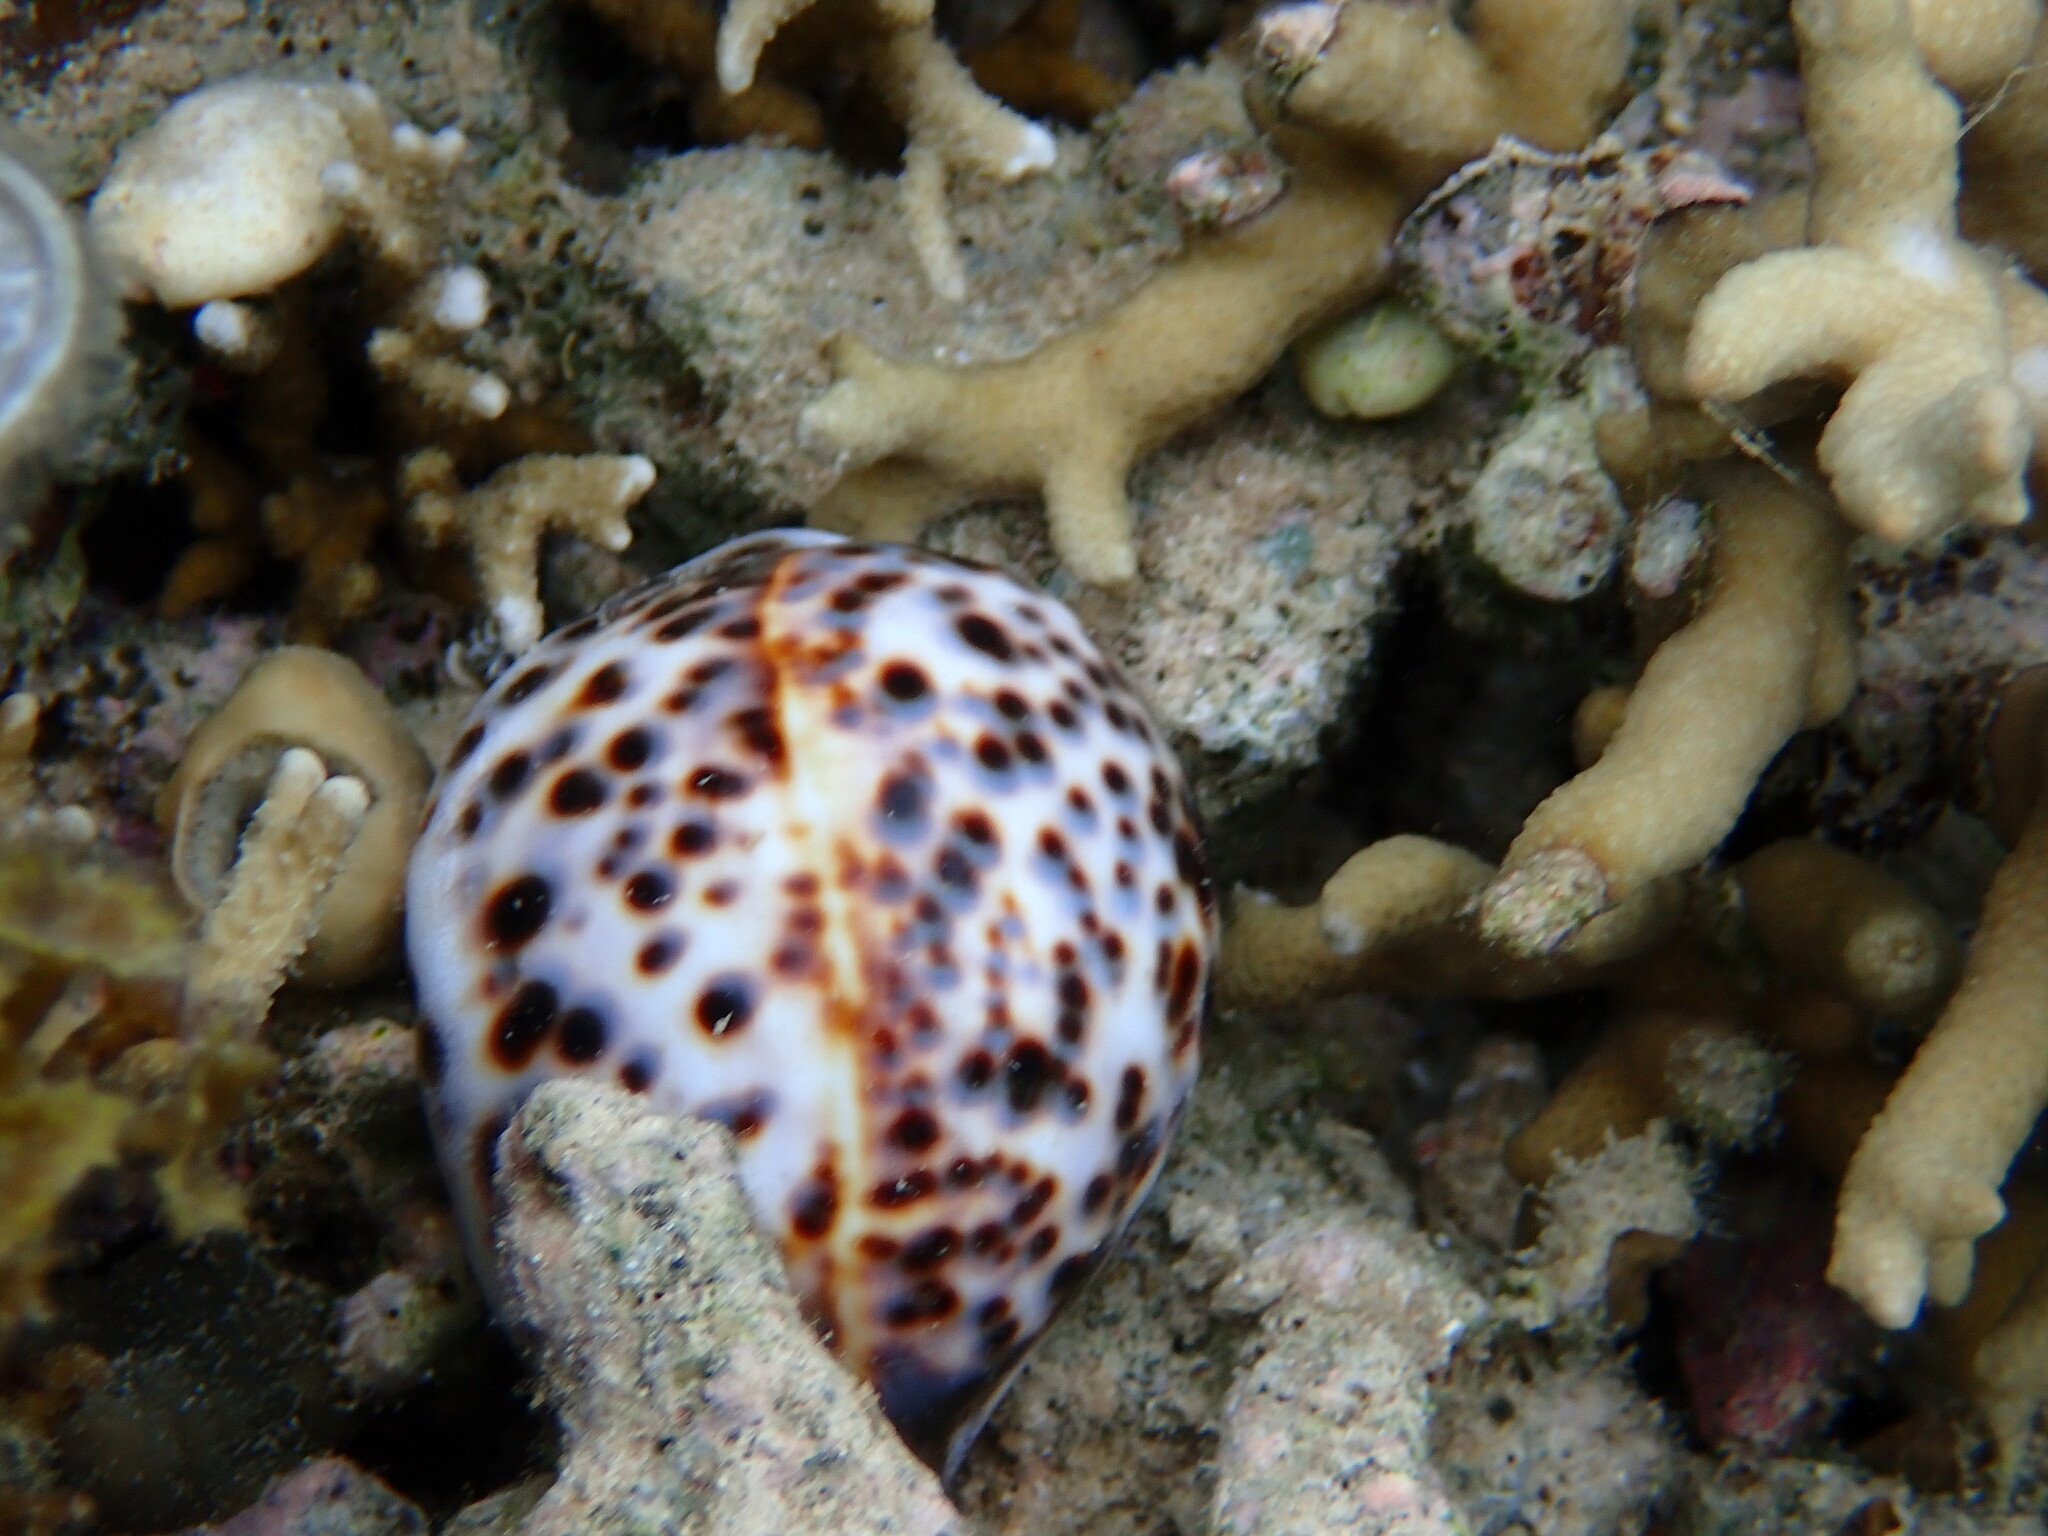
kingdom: Animalia
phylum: Mollusca
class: Gastropoda
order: Littorinimorpha
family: Cypraeidae
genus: Cypraea
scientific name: Cypraea tigris
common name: Tiger cowrie
